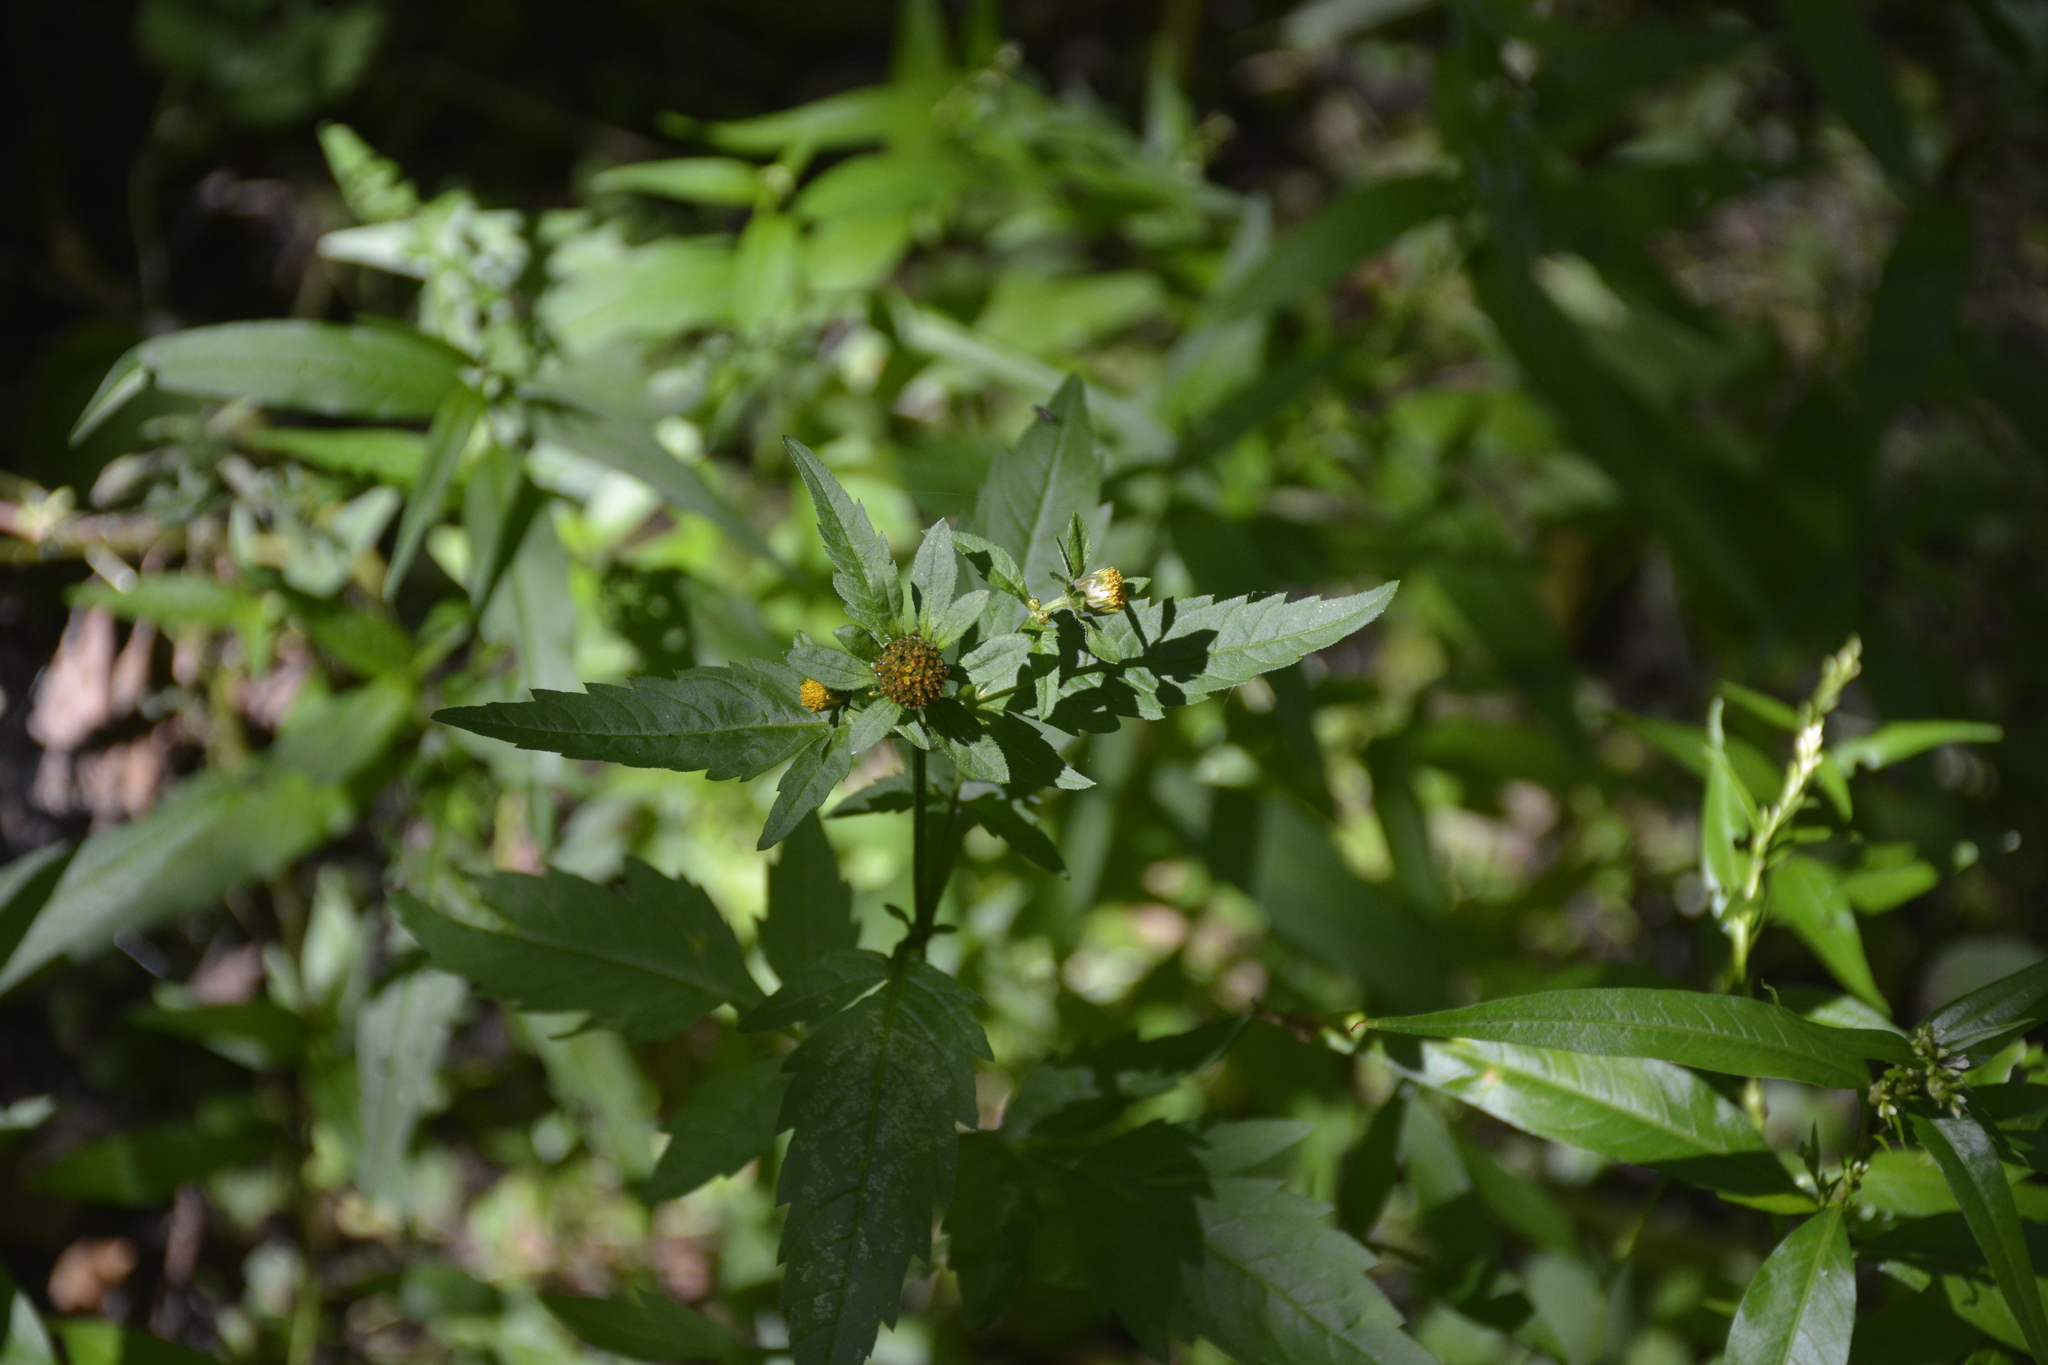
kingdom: Plantae
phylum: Tracheophyta
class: Magnoliopsida
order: Asterales
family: Asteraceae
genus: Bidens
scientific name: Bidens tripartita
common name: Trifid bur-marigold
